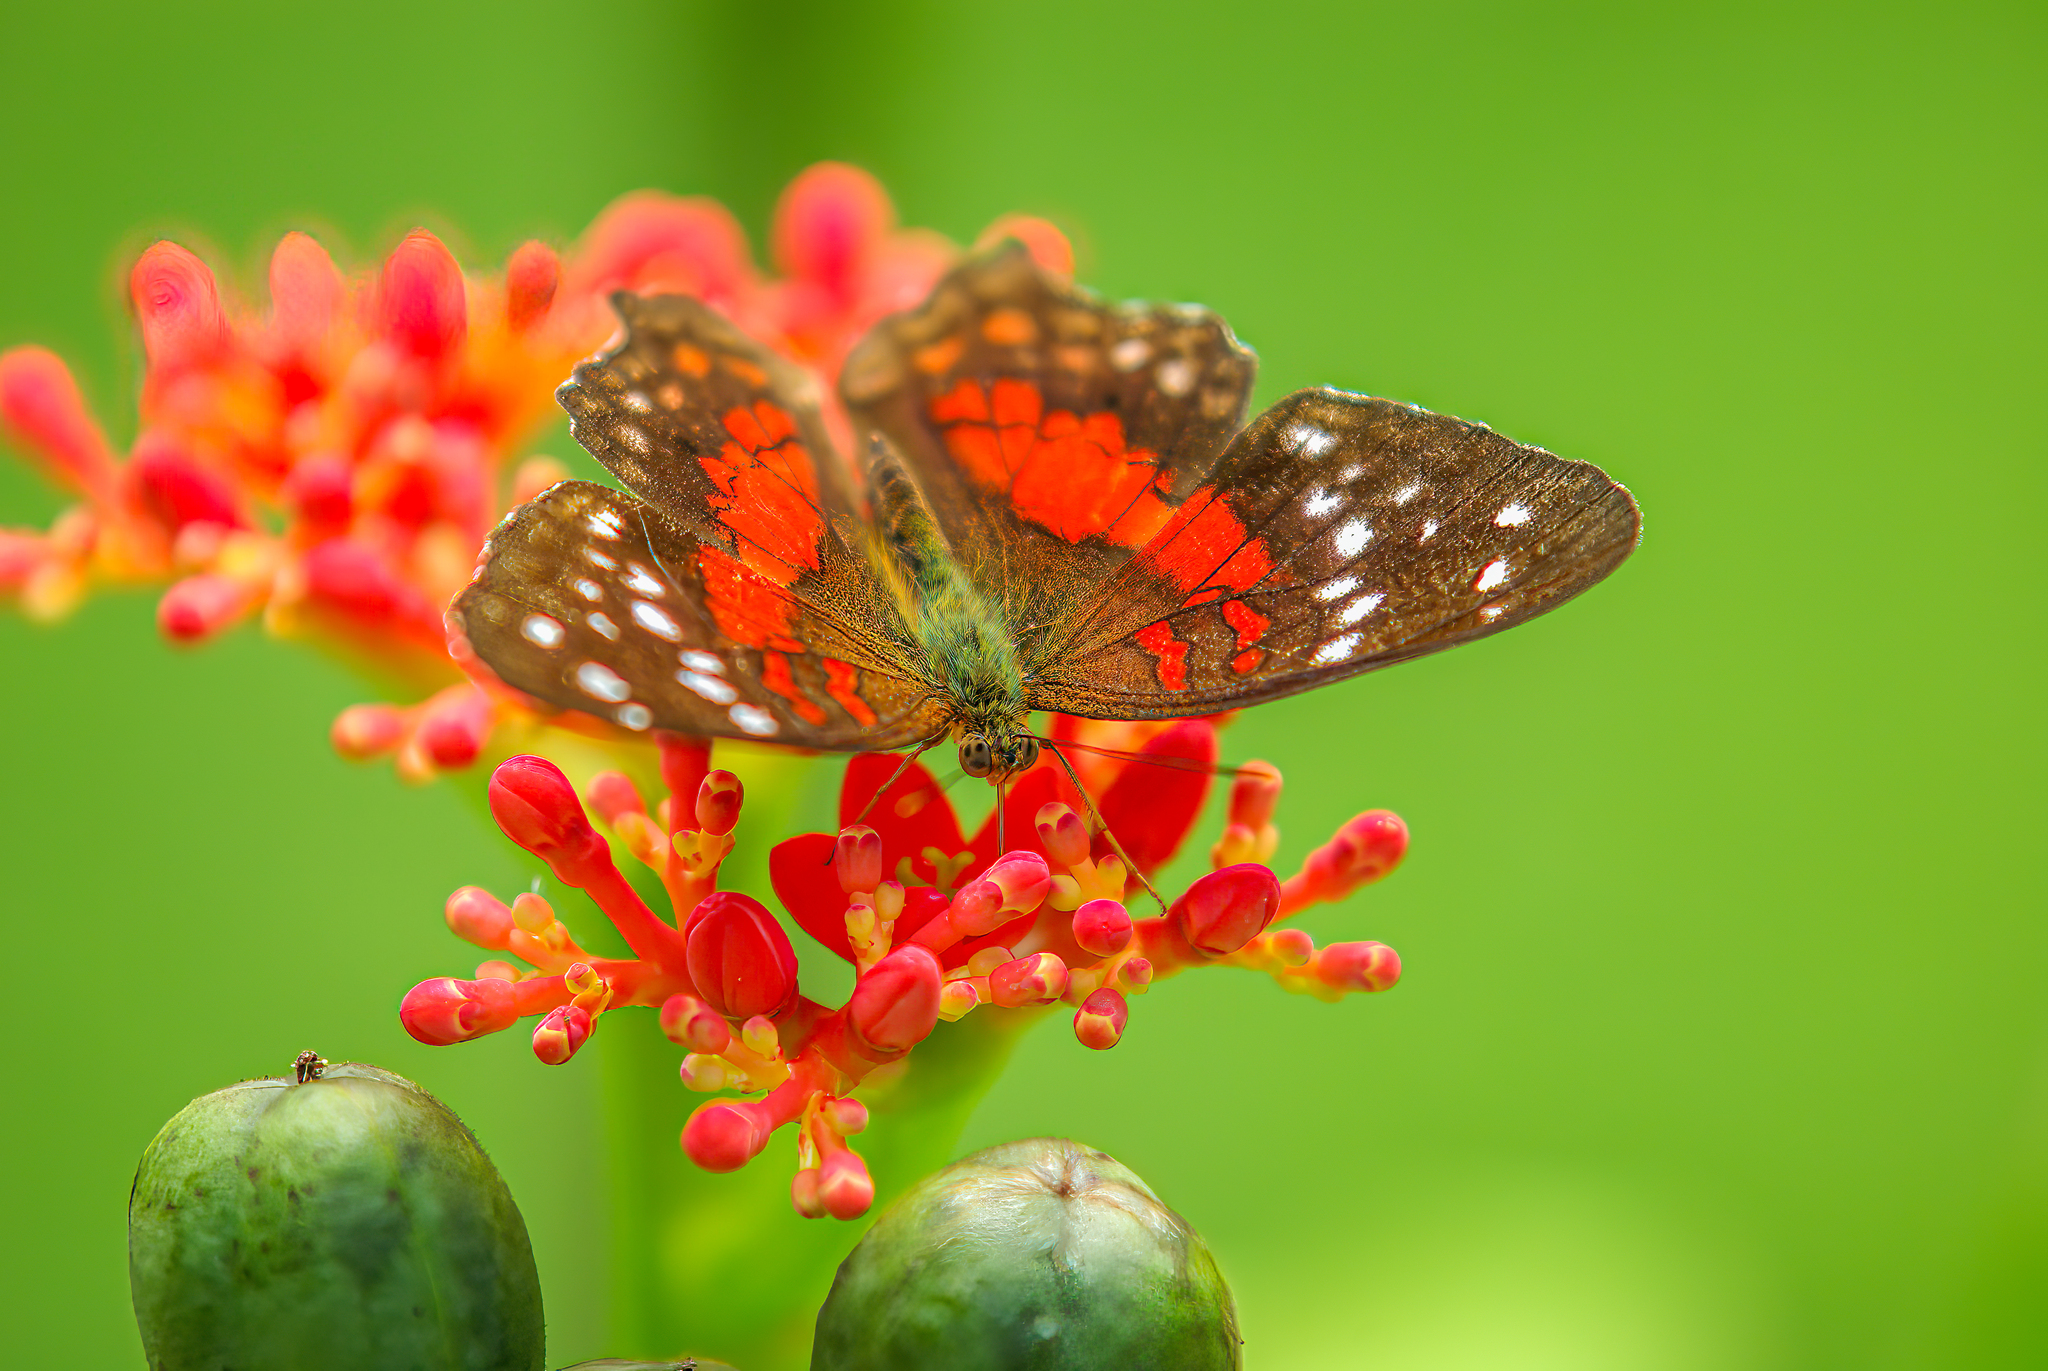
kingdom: Animalia
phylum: Arthropoda
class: Insecta
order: Lepidoptera
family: Nymphalidae
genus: Anartia
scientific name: Anartia amathea
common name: Red peacock
